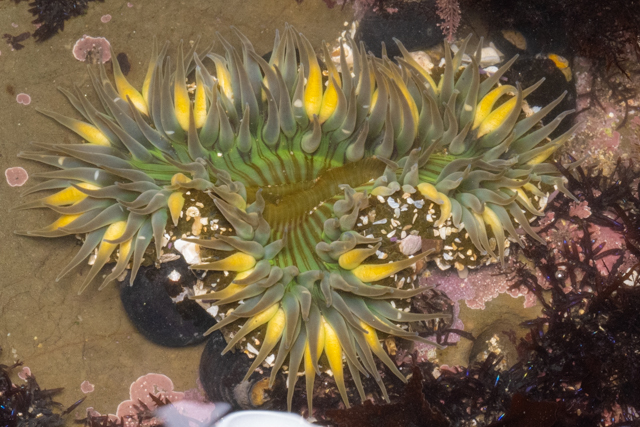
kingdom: Animalia
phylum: Cnidaria
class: Anthozoa
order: Actiniaria
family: Actiniidae
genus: Anthopleura
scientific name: Anthopleura sola
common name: Sun anemone
